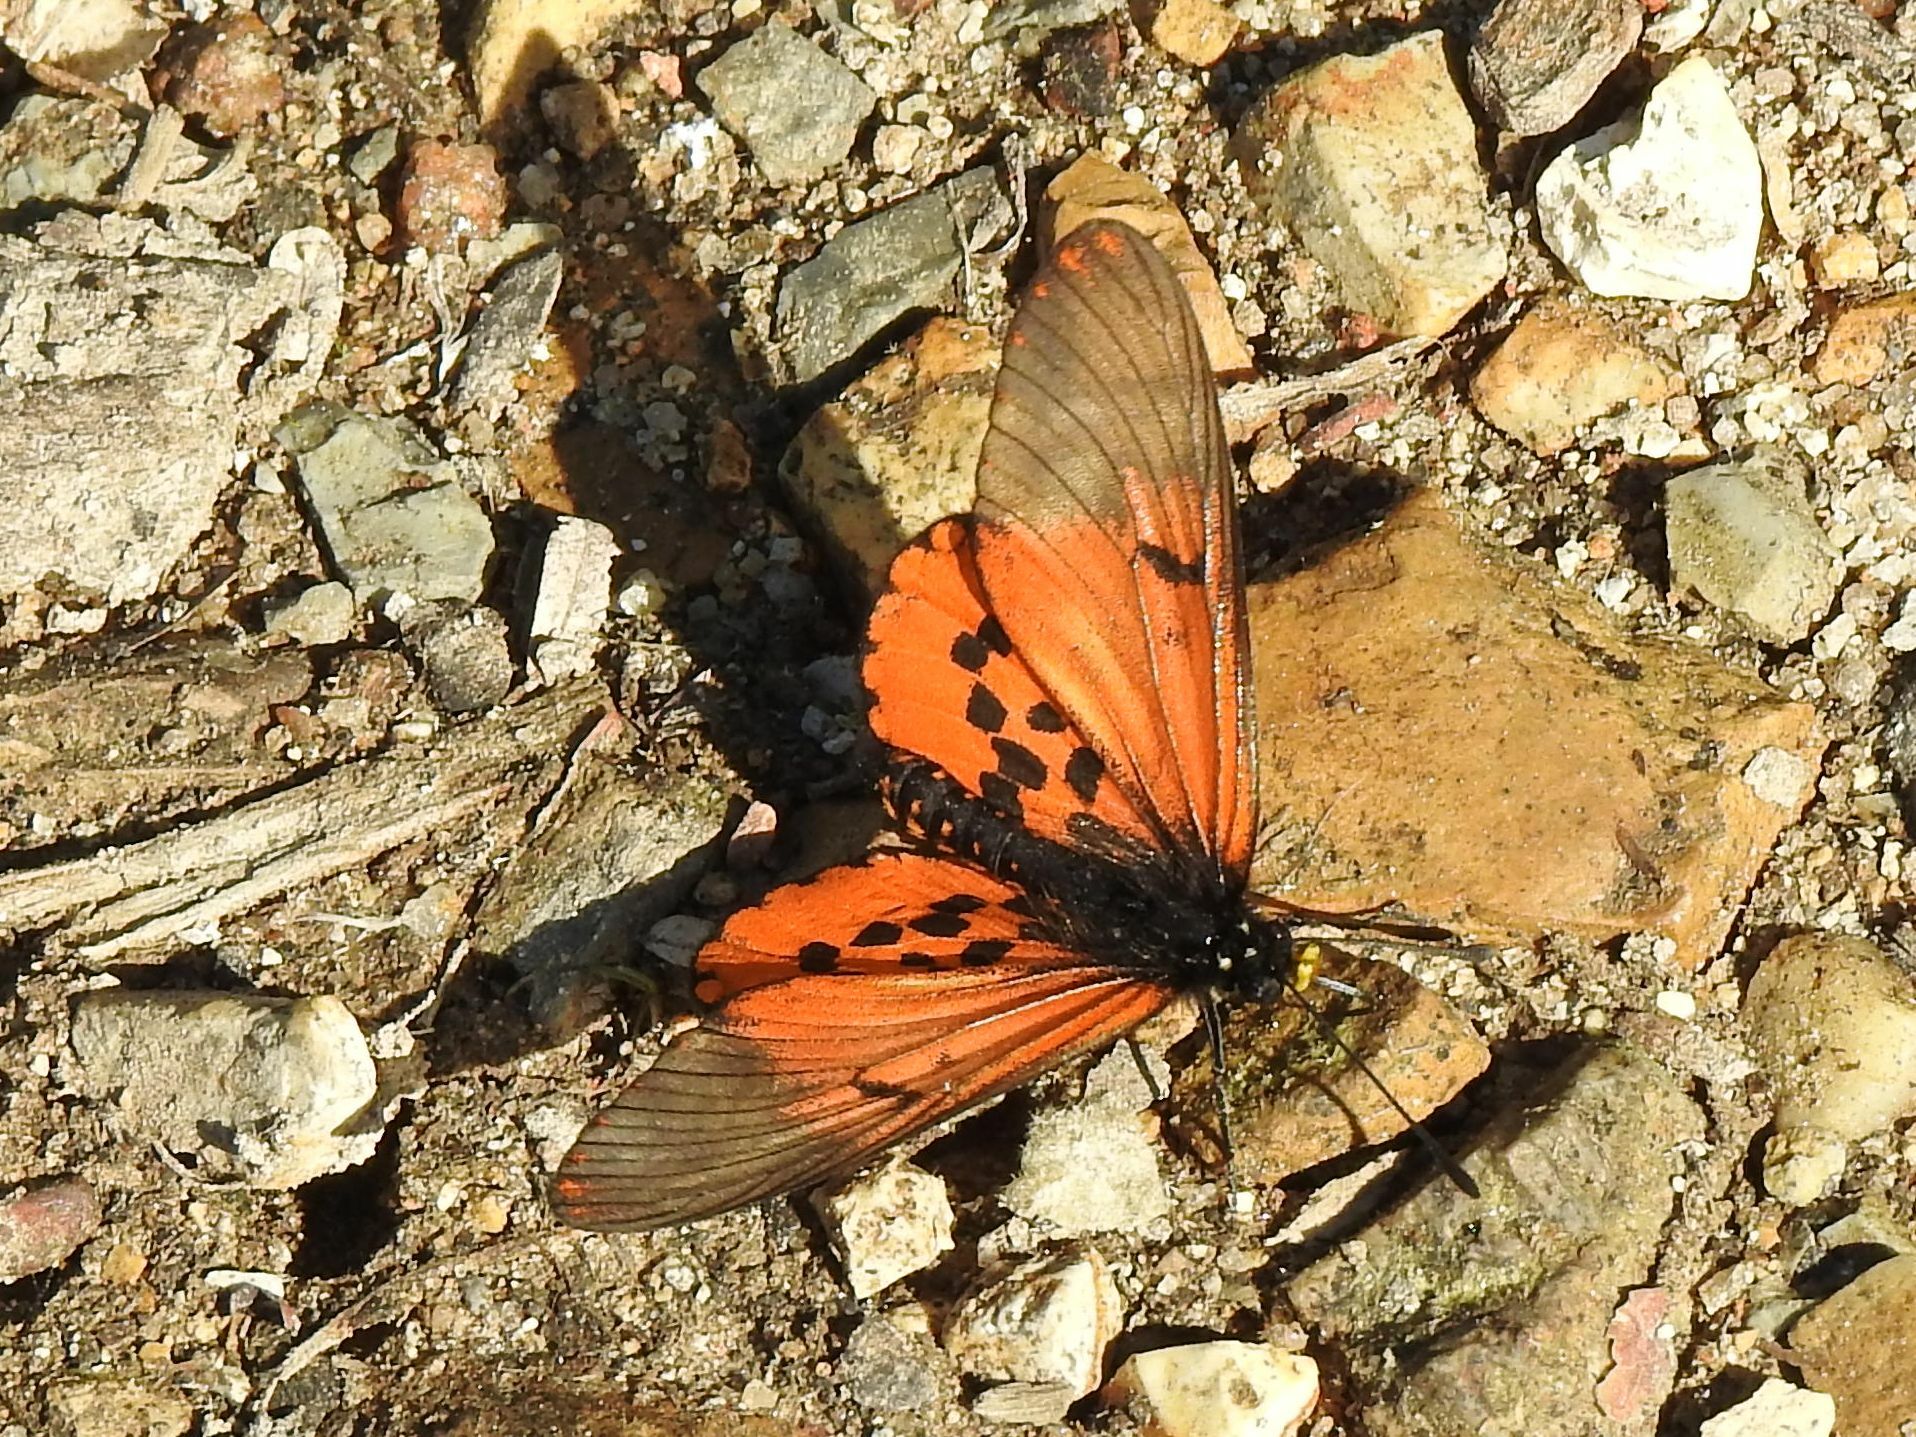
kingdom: Animalia
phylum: Arthropoda
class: Insecta
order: Lepidoptera
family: Nymphalidae
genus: Acraea
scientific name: Acraea horta
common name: Garden acraea
